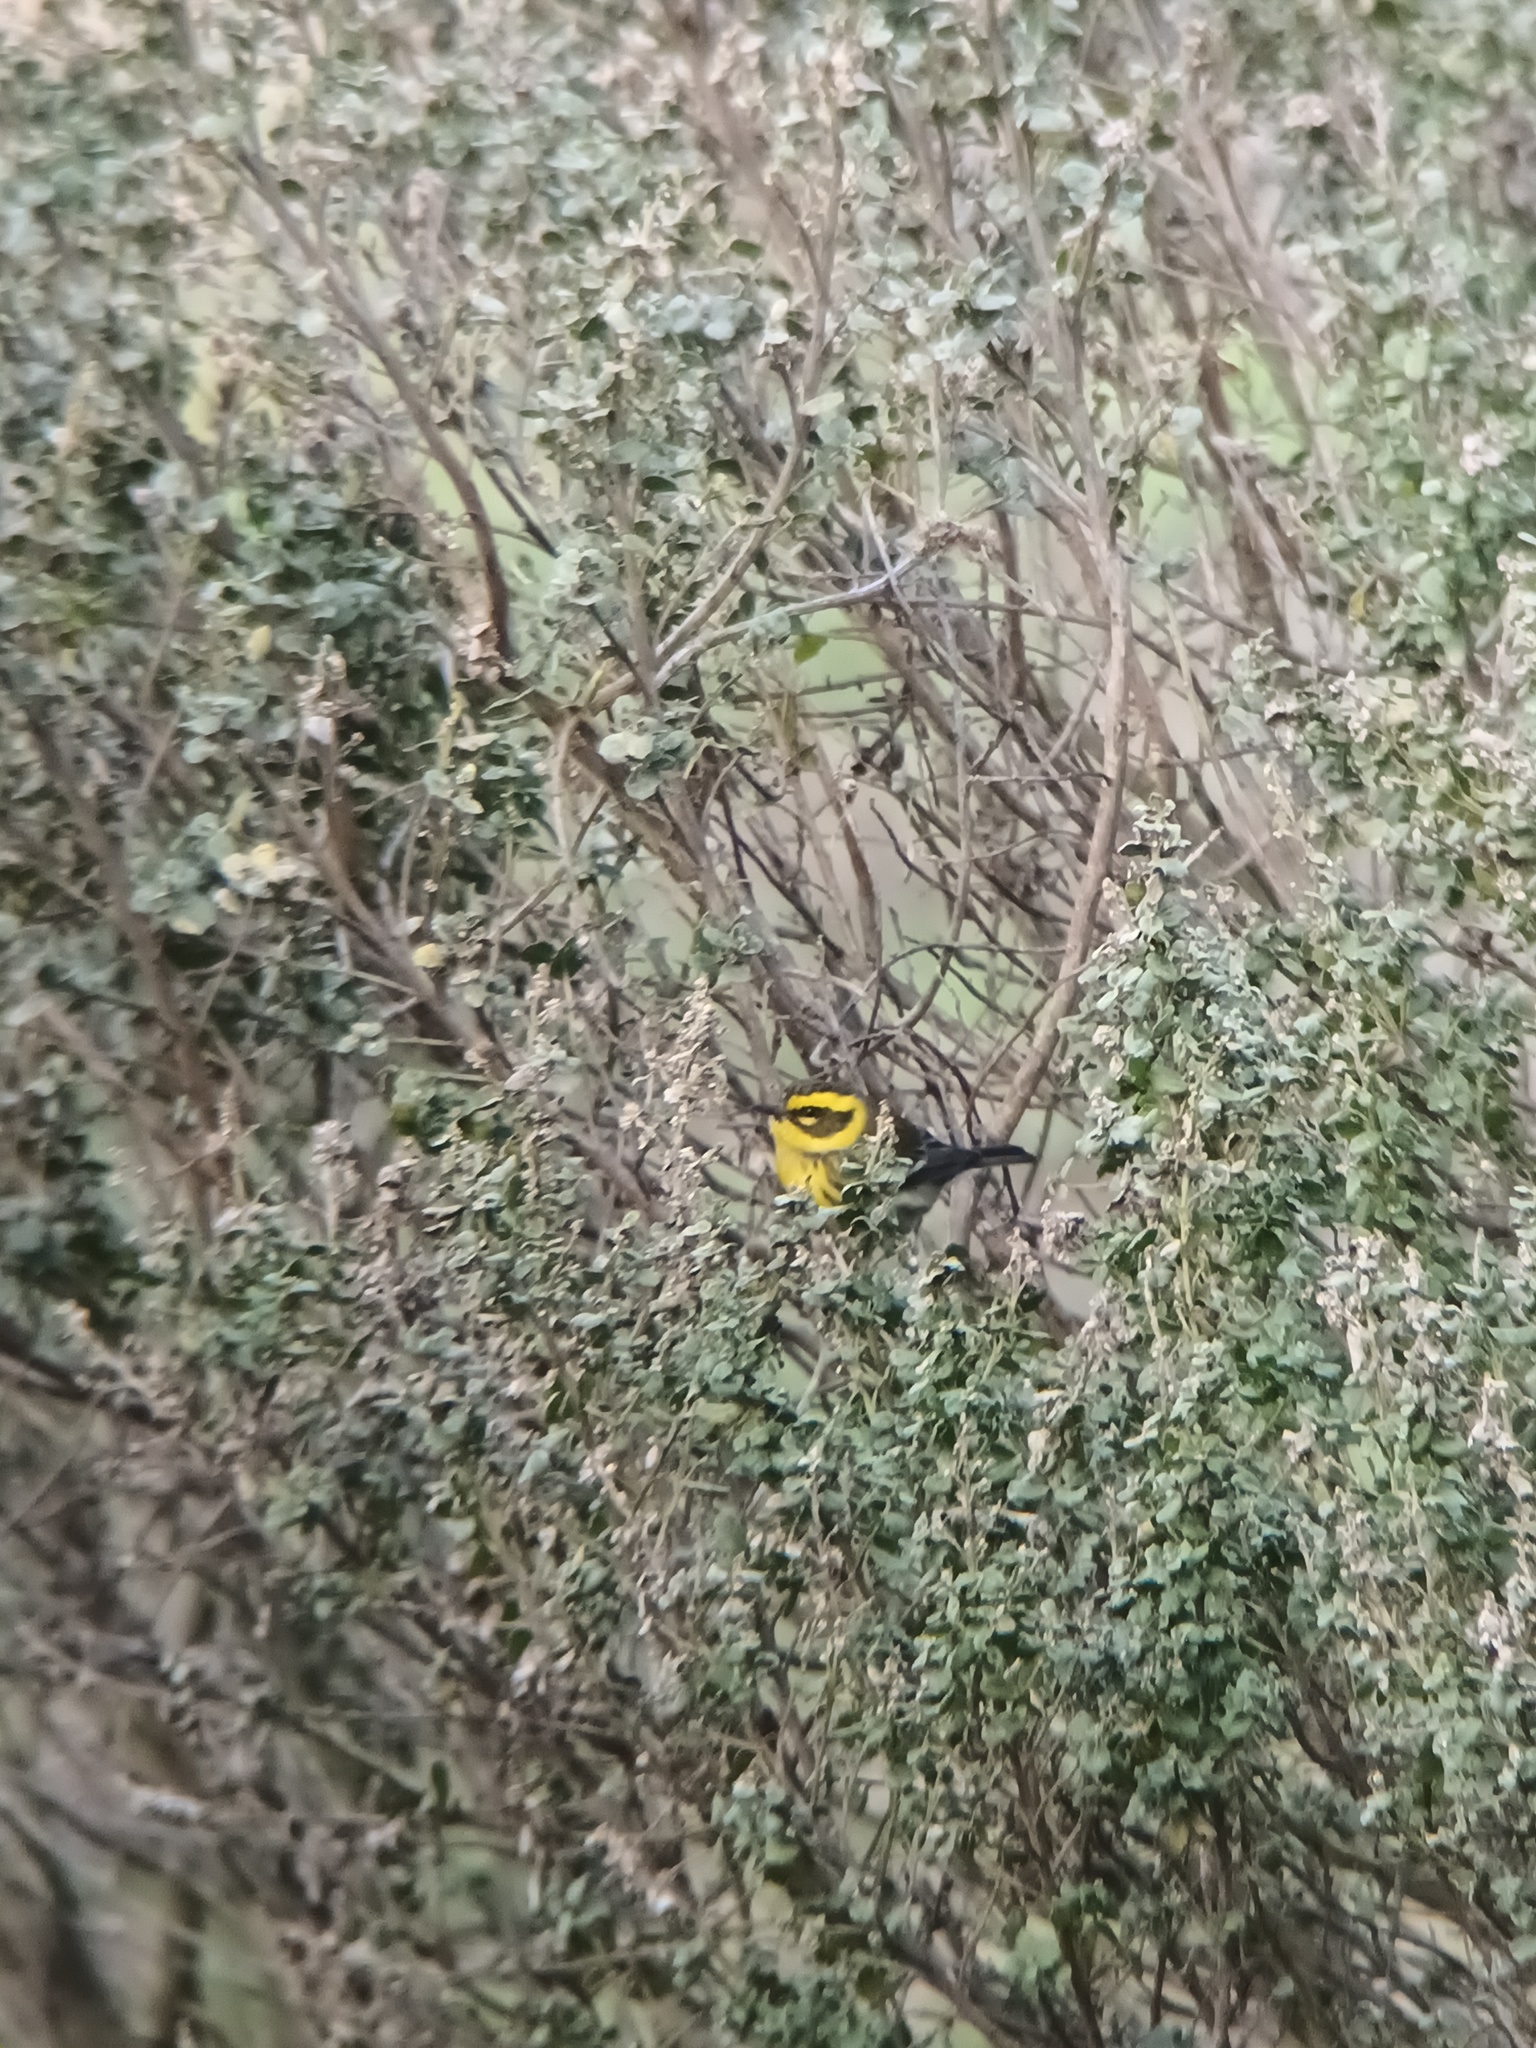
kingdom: Animalia
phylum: Chordata
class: Aves
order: Passeriformes
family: Parulidae
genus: Setophaga
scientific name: Setophaga townsendi
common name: Townsend's warbler
